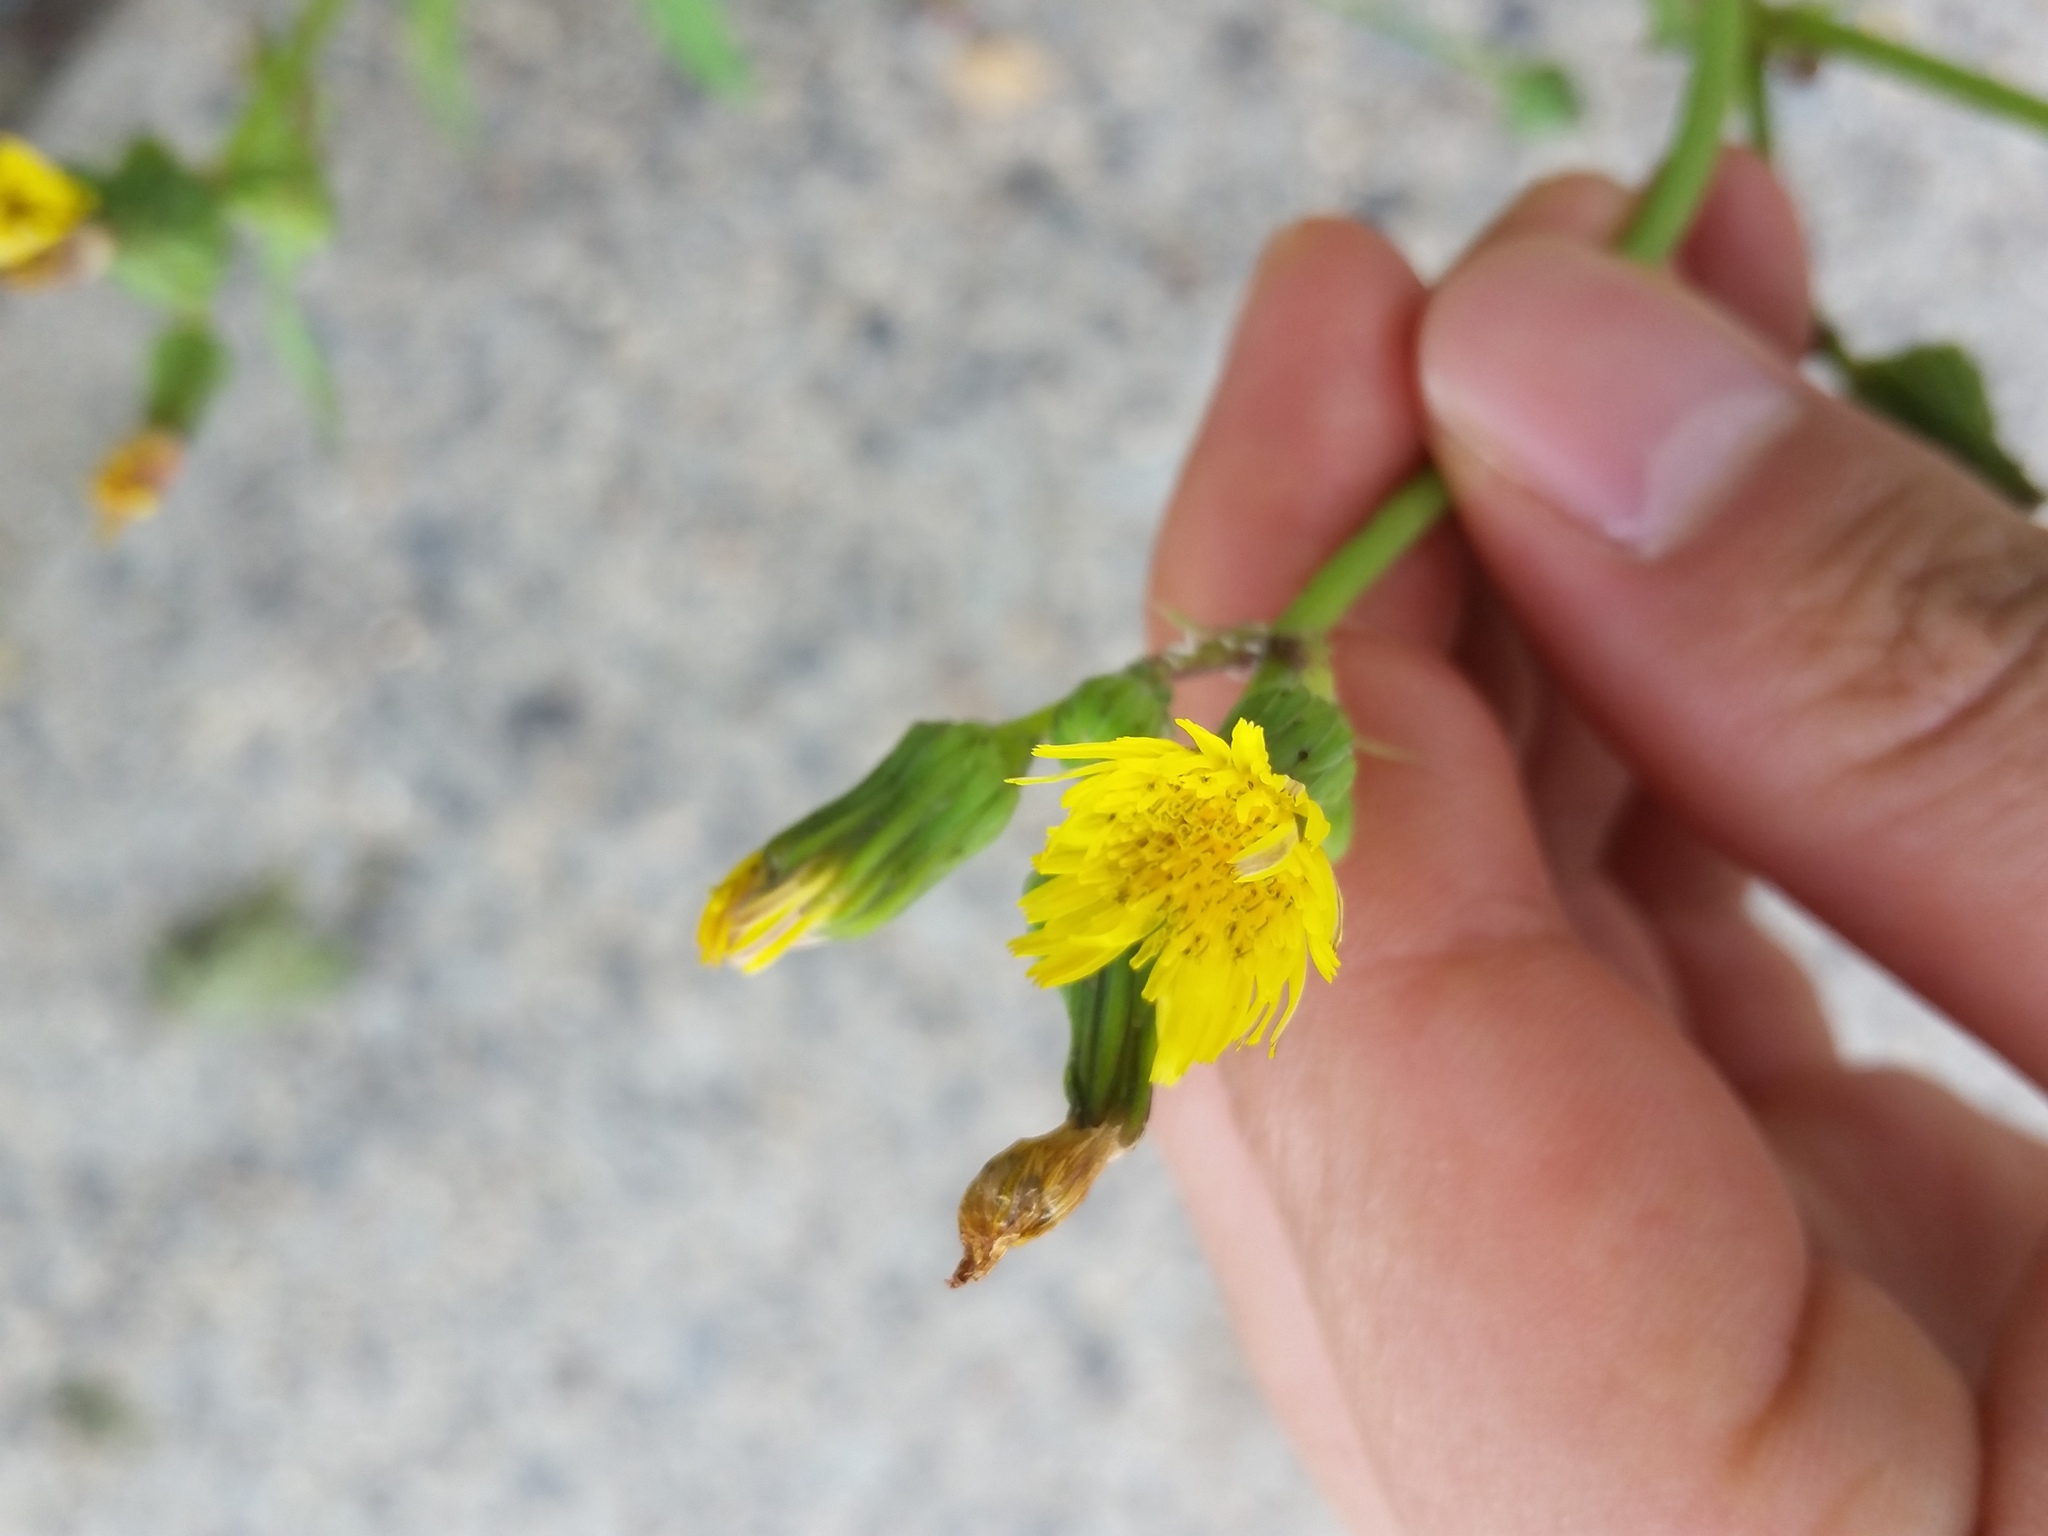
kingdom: Plantae
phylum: Tracheophyta
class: Magnoliopsida
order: Asterales
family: Asteraceae
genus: Sonchus
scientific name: Sonchus oleraceus
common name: Common sowthistle
